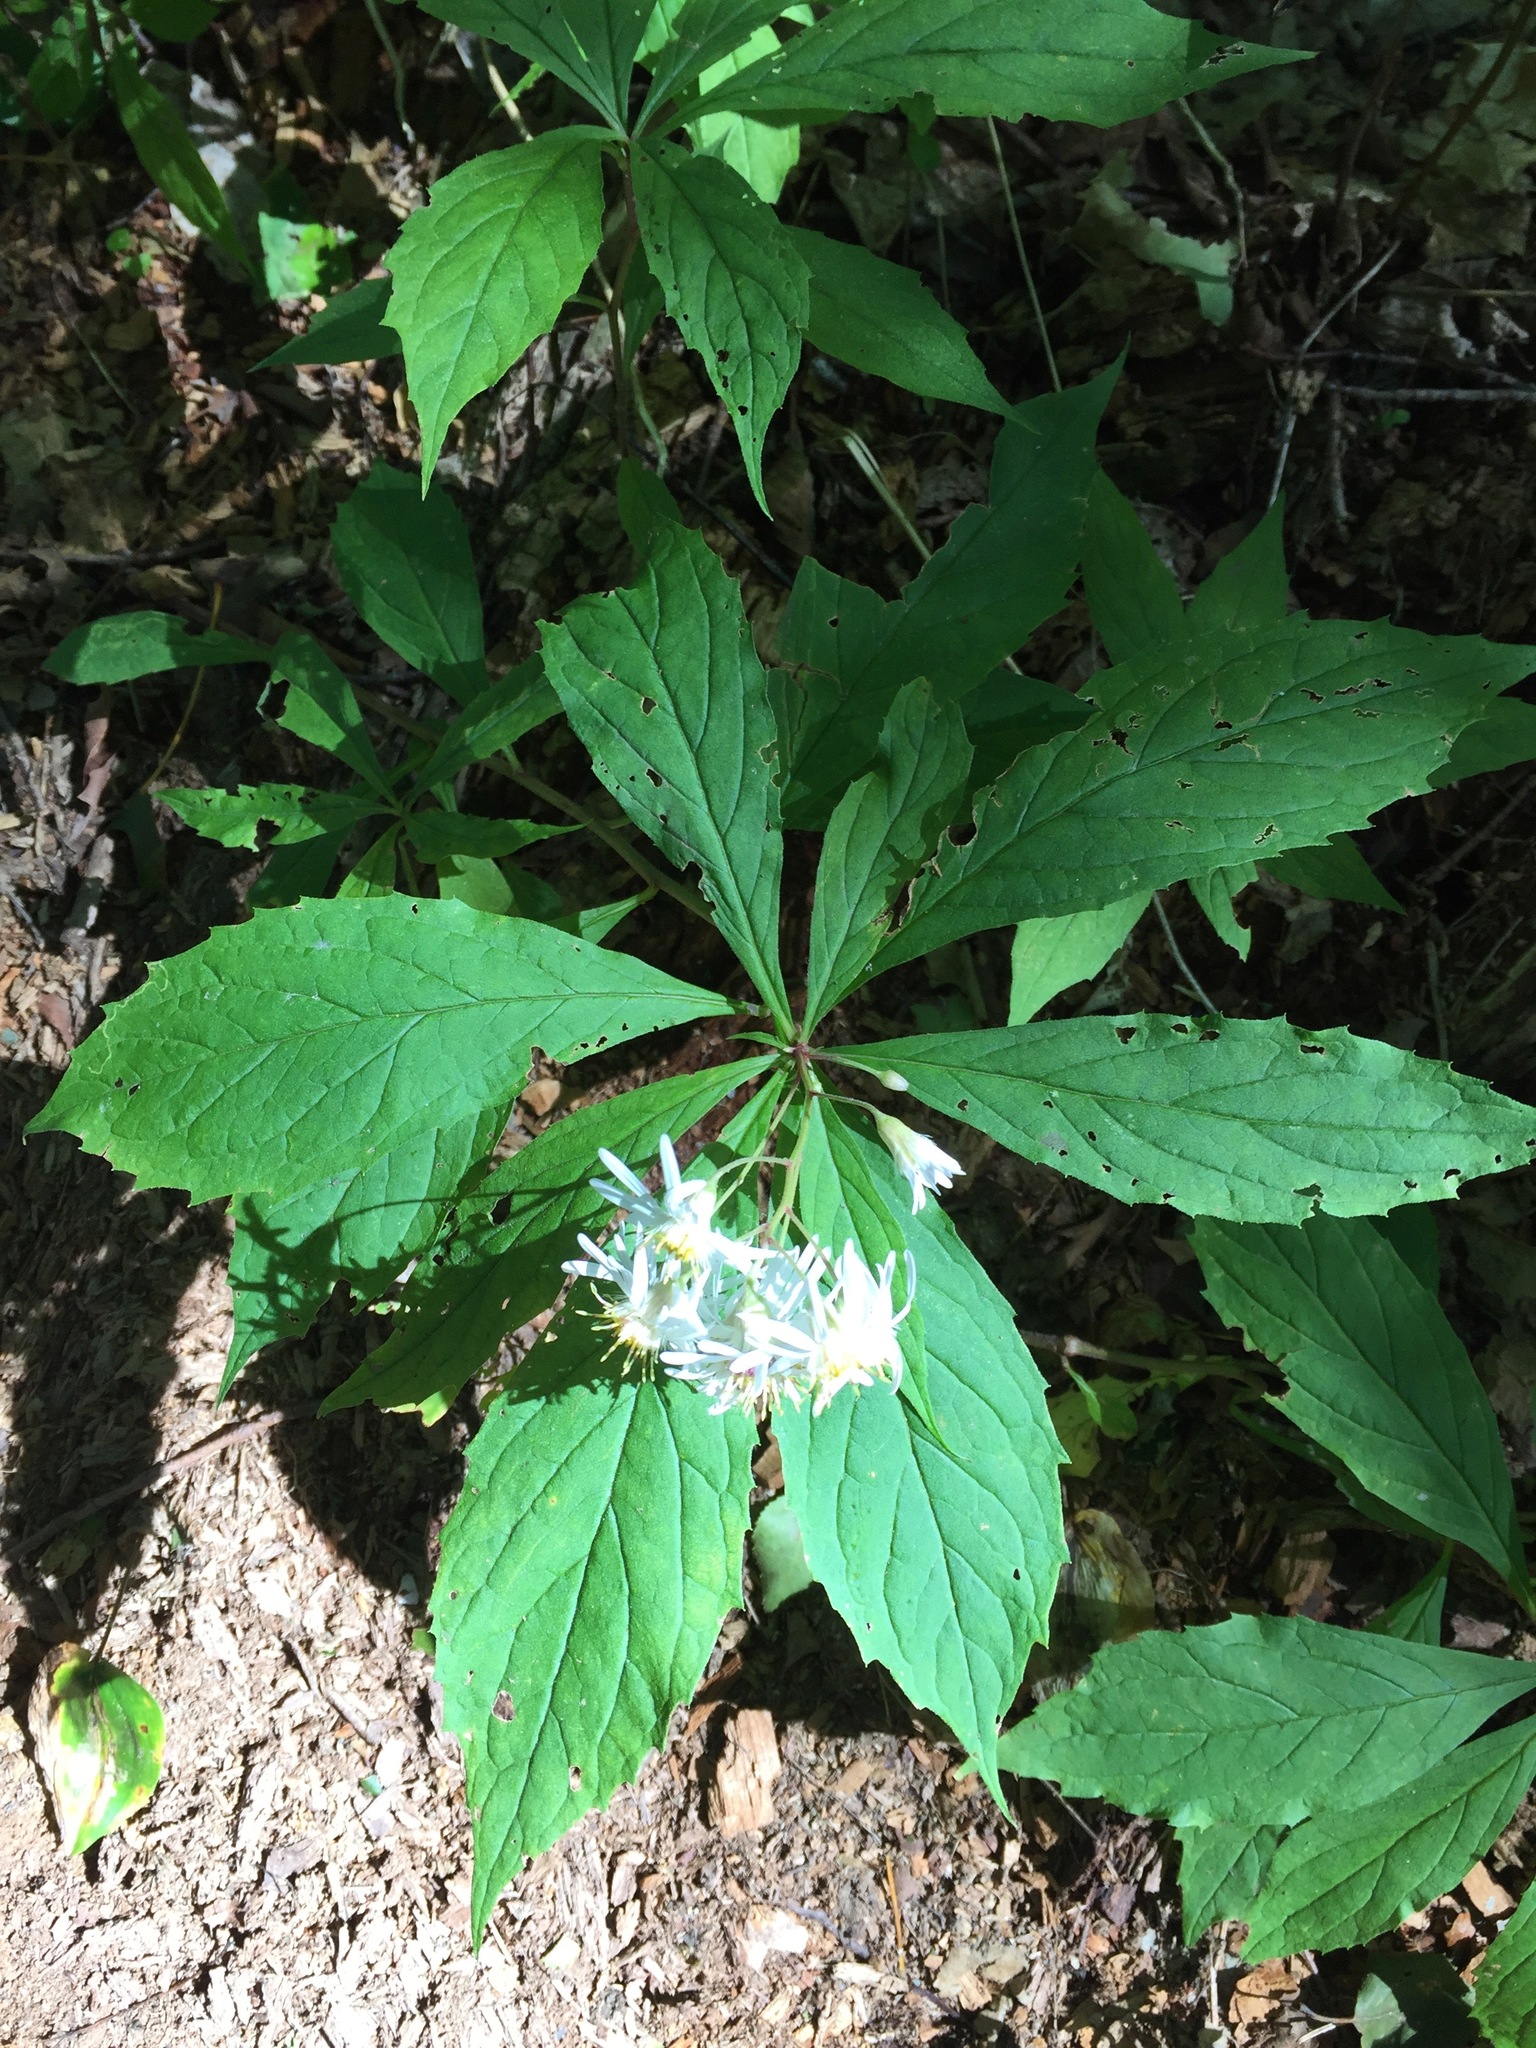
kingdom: Plantae
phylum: Tracheophyta
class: Magnoliopsida
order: Asterales
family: Asteraceae
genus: Oclemena
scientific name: Oclemena acuminata
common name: Mountain aster
